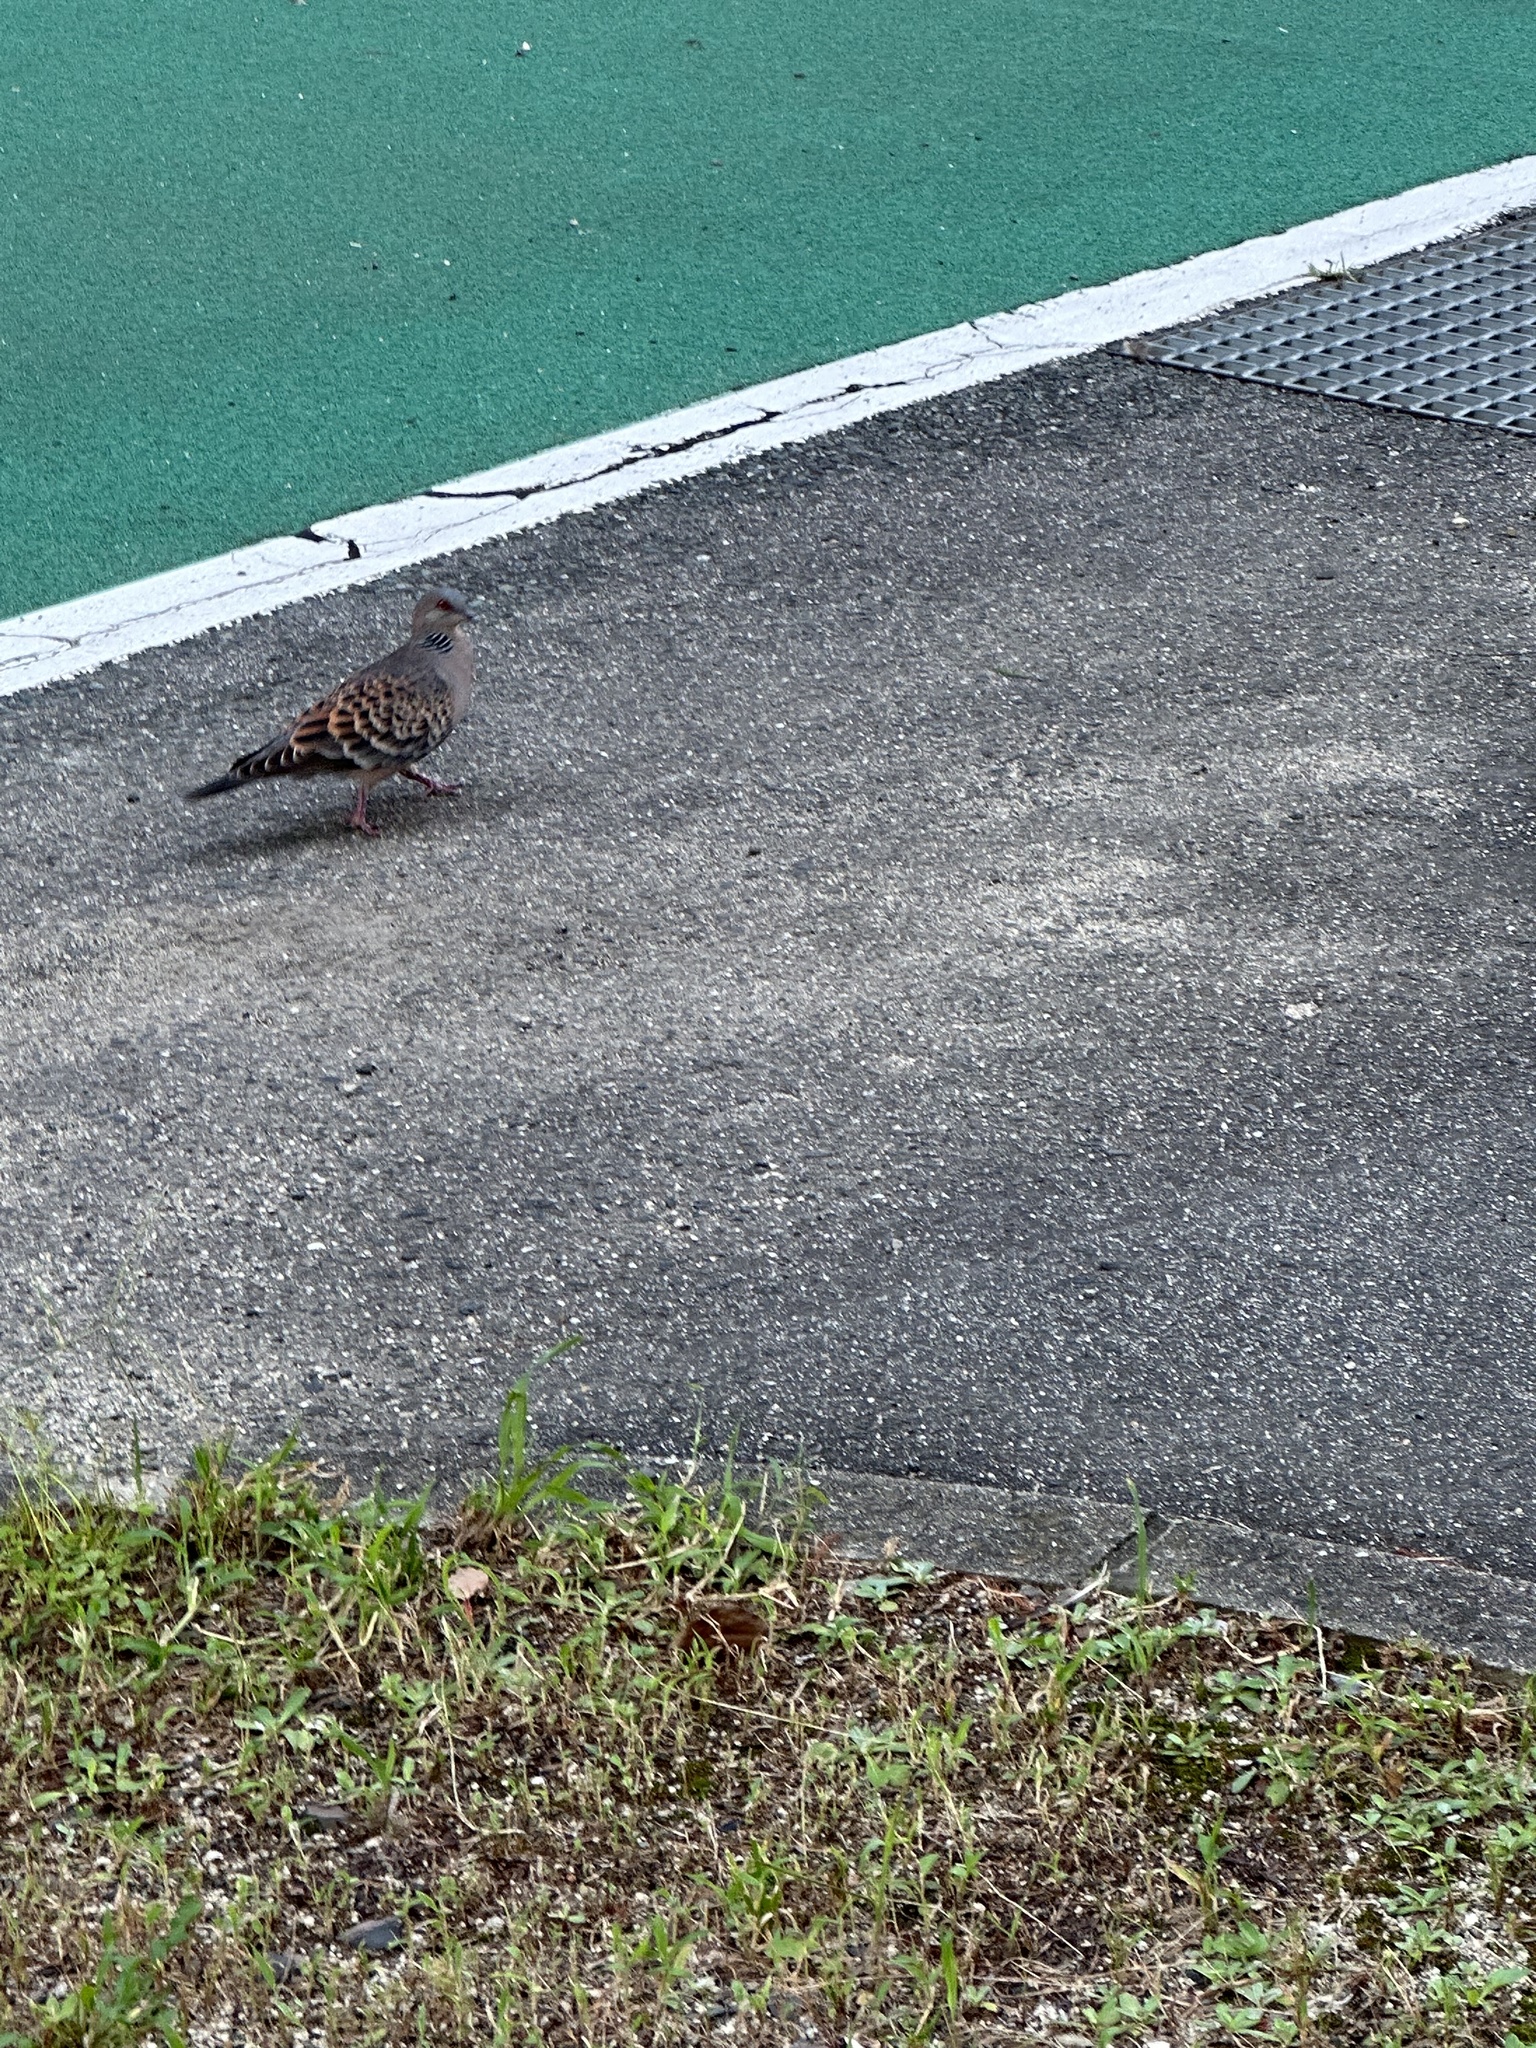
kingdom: Animalia
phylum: Chordata
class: Aves
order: Columbiformes
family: Columbidae
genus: Streptopelia
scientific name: Streptopelia orientalis
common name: Oriental turtle dove
